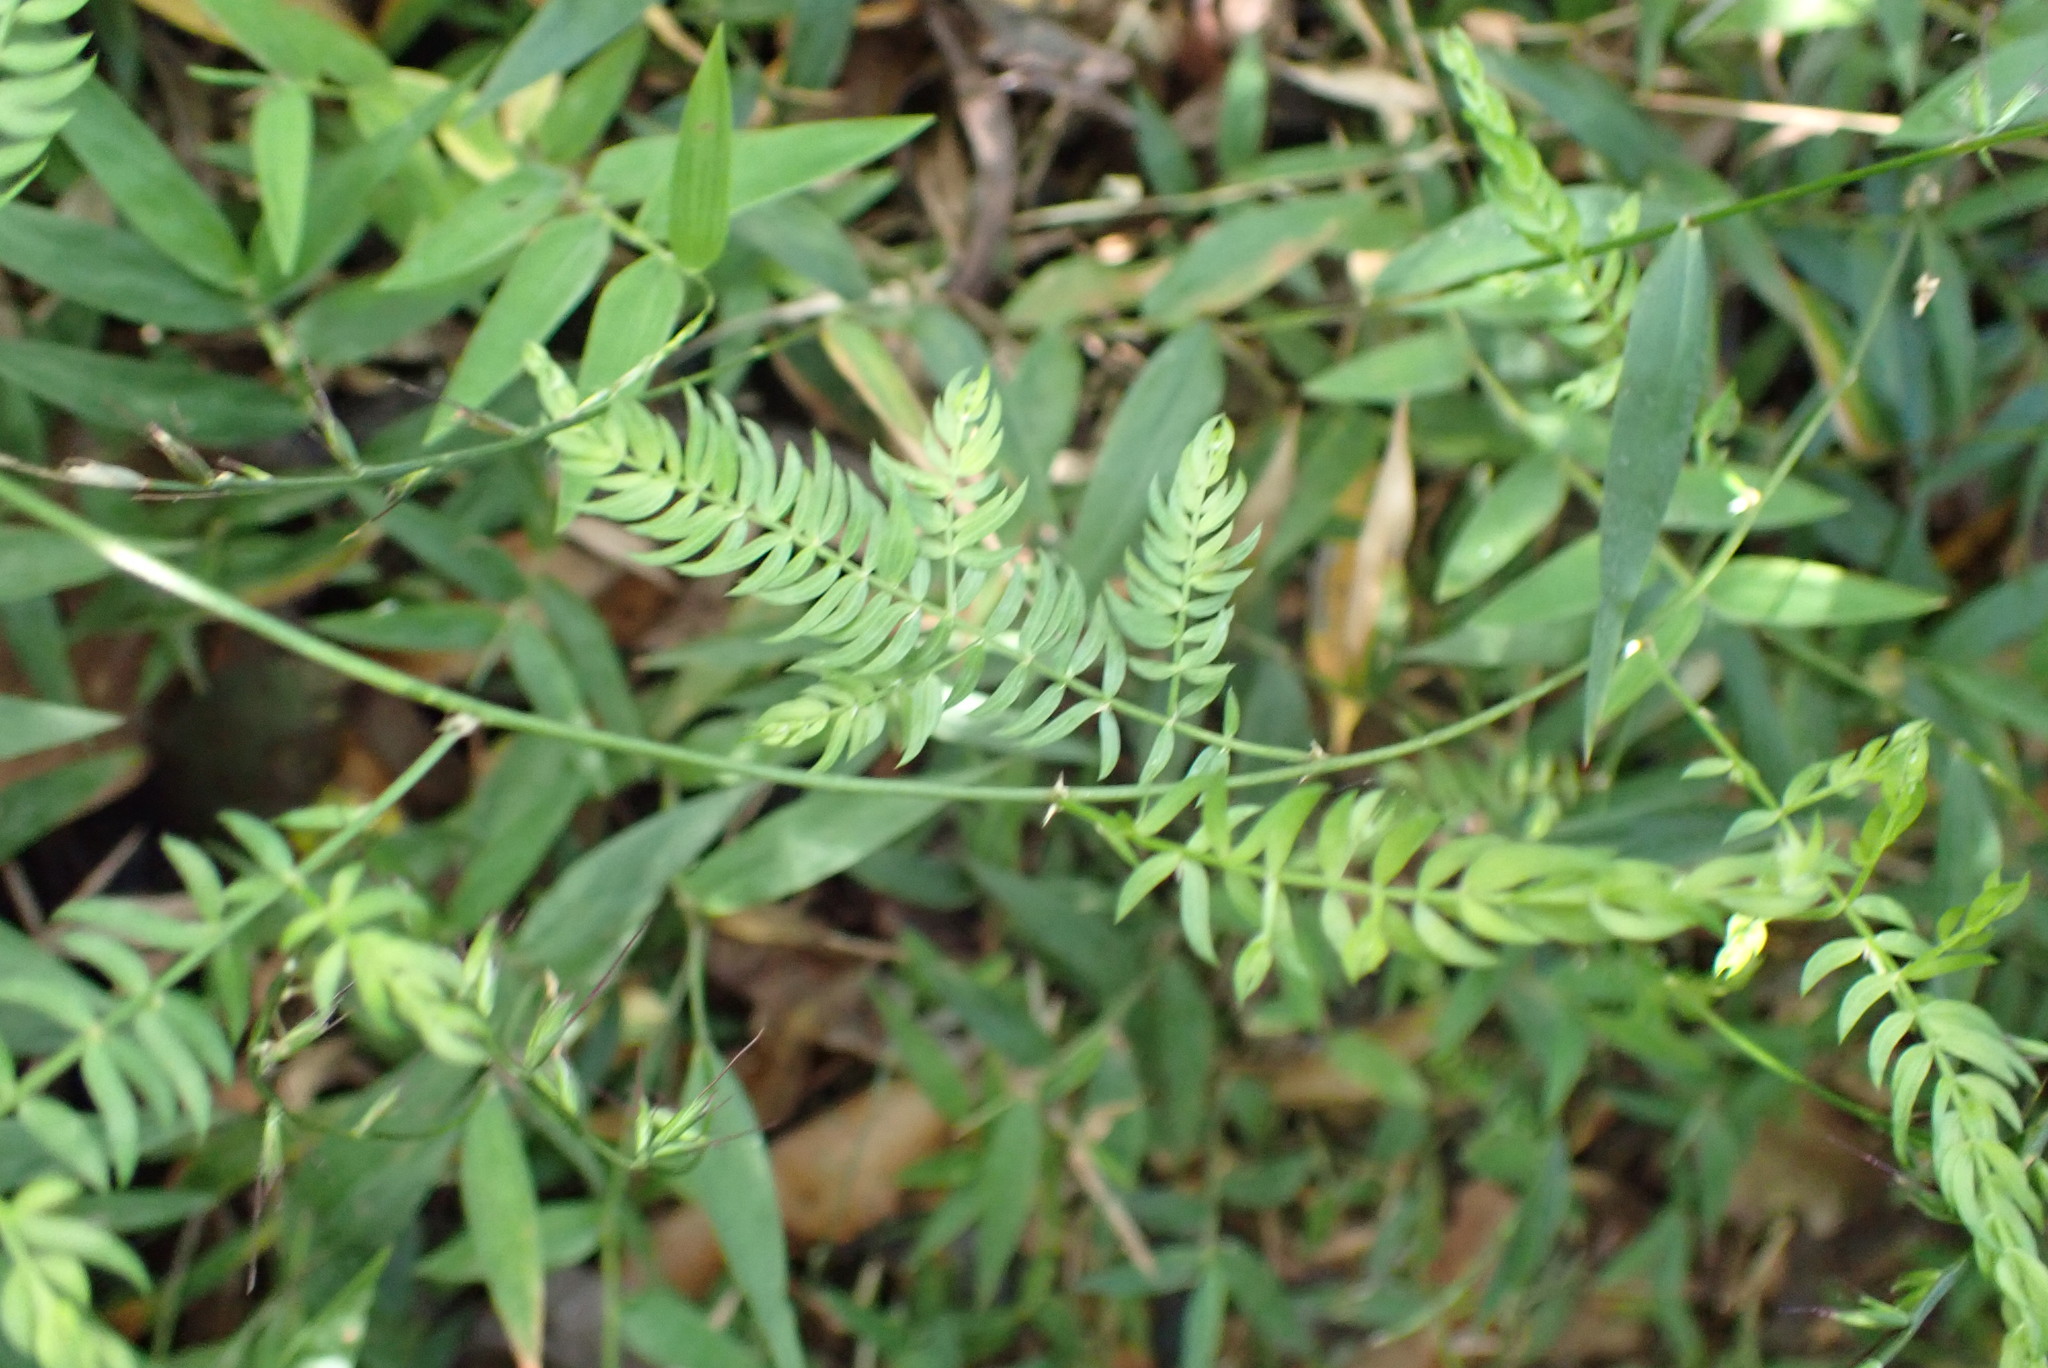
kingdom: Plantae
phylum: Tracheophyta
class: Liliopsida
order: Asparagales
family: Asparagaceae
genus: Asparagus
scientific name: Asparagus scandens
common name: Asparagus-fern
